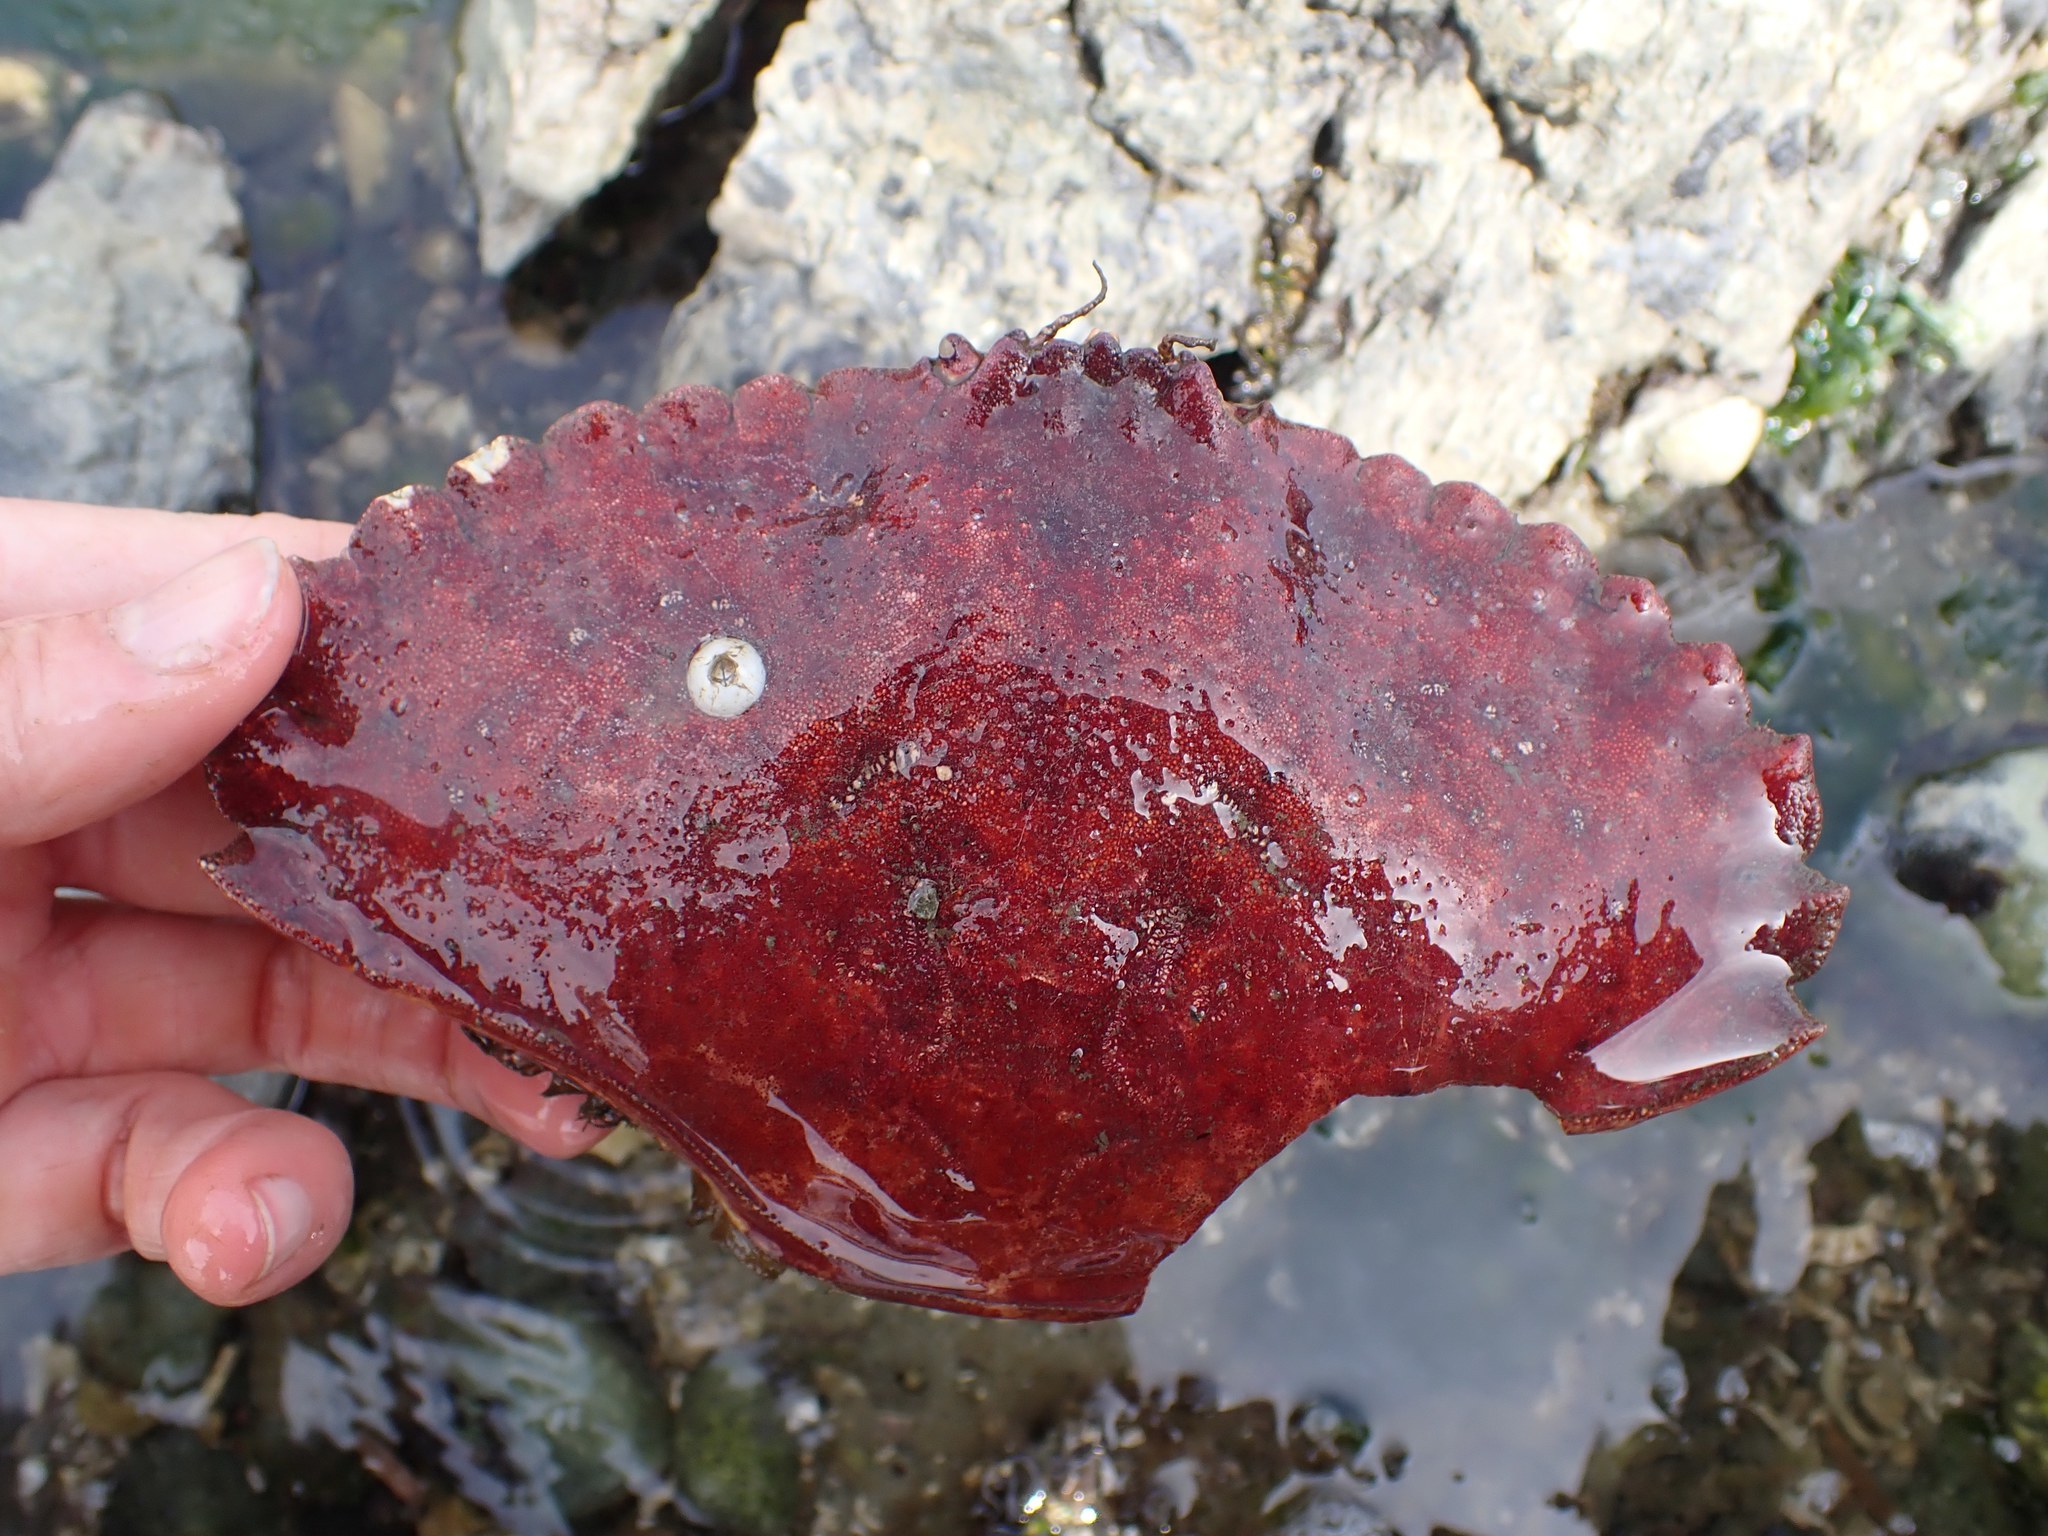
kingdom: Animalia
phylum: Arthropoda
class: Malacostraca
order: Decapoda
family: Cancridae
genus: Cancer
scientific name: Cancer productus
